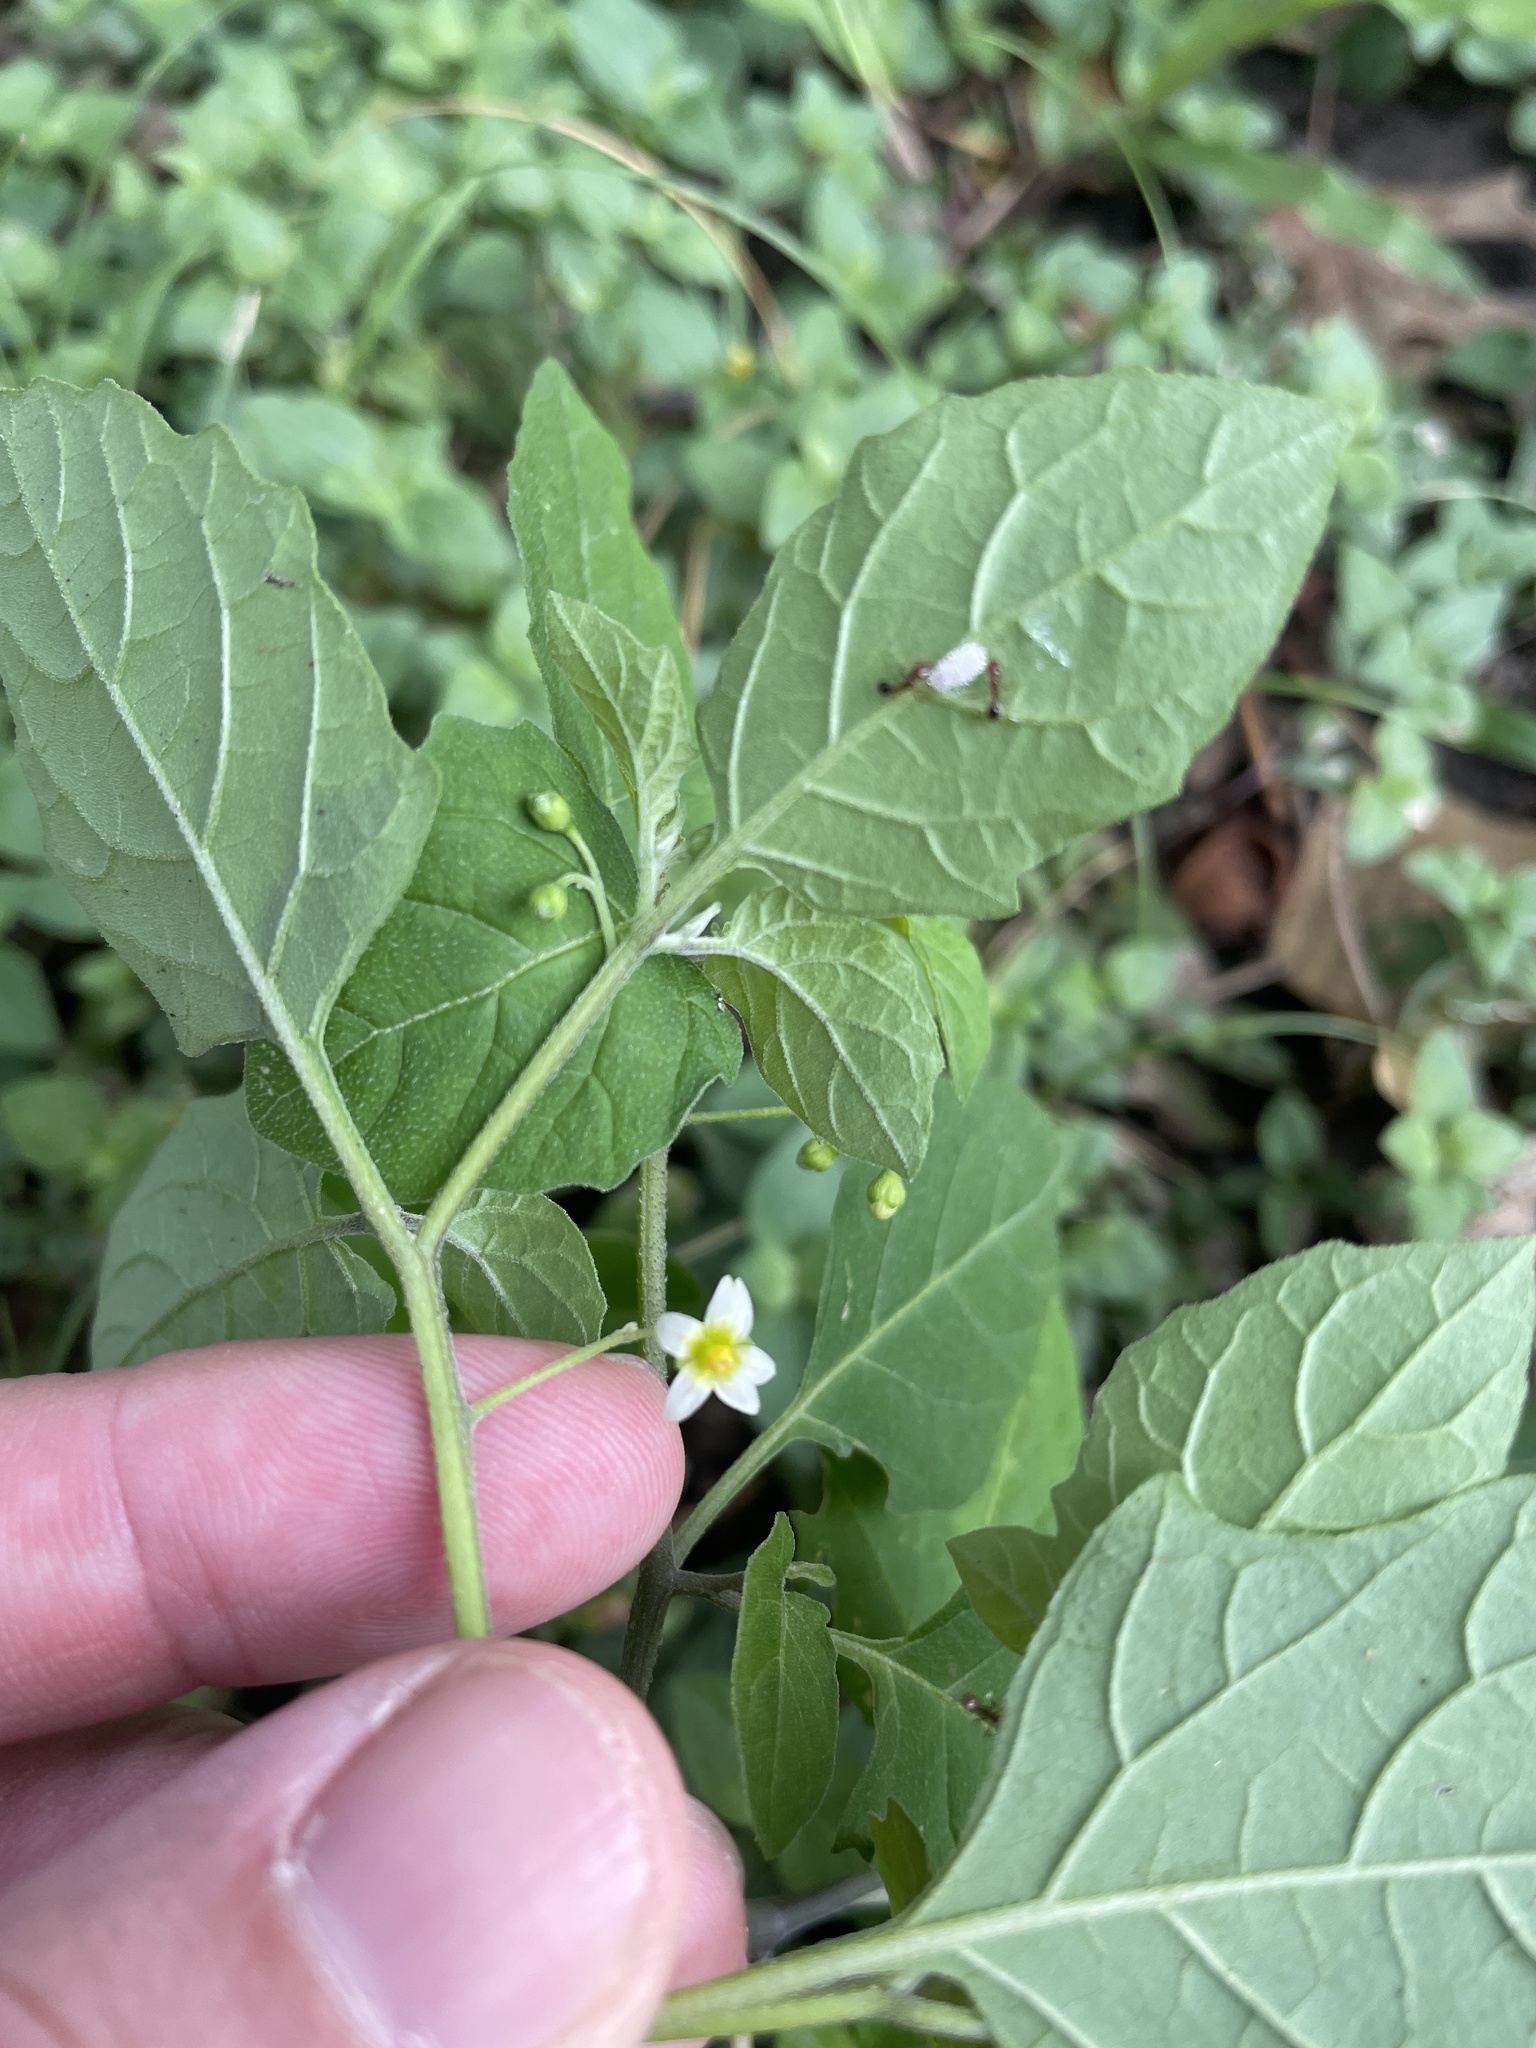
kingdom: Plantae
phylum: Tracheophyta
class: Magnoliopsida
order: Solanales
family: Solanaceae
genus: Solanum
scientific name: Solanum emulans
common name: Eastern black nightshade
